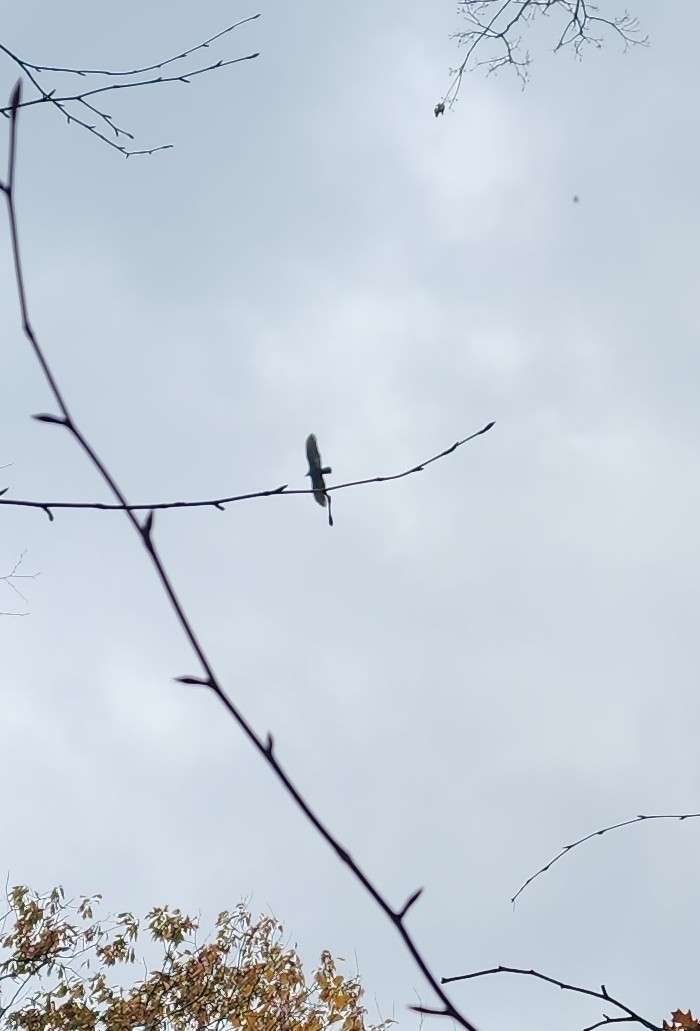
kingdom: Animalia
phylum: Chordata
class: Aves
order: Accipitriformes
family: Cathartidae
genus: Cathartes
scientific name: Cathartes aura
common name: Turkey vulture
